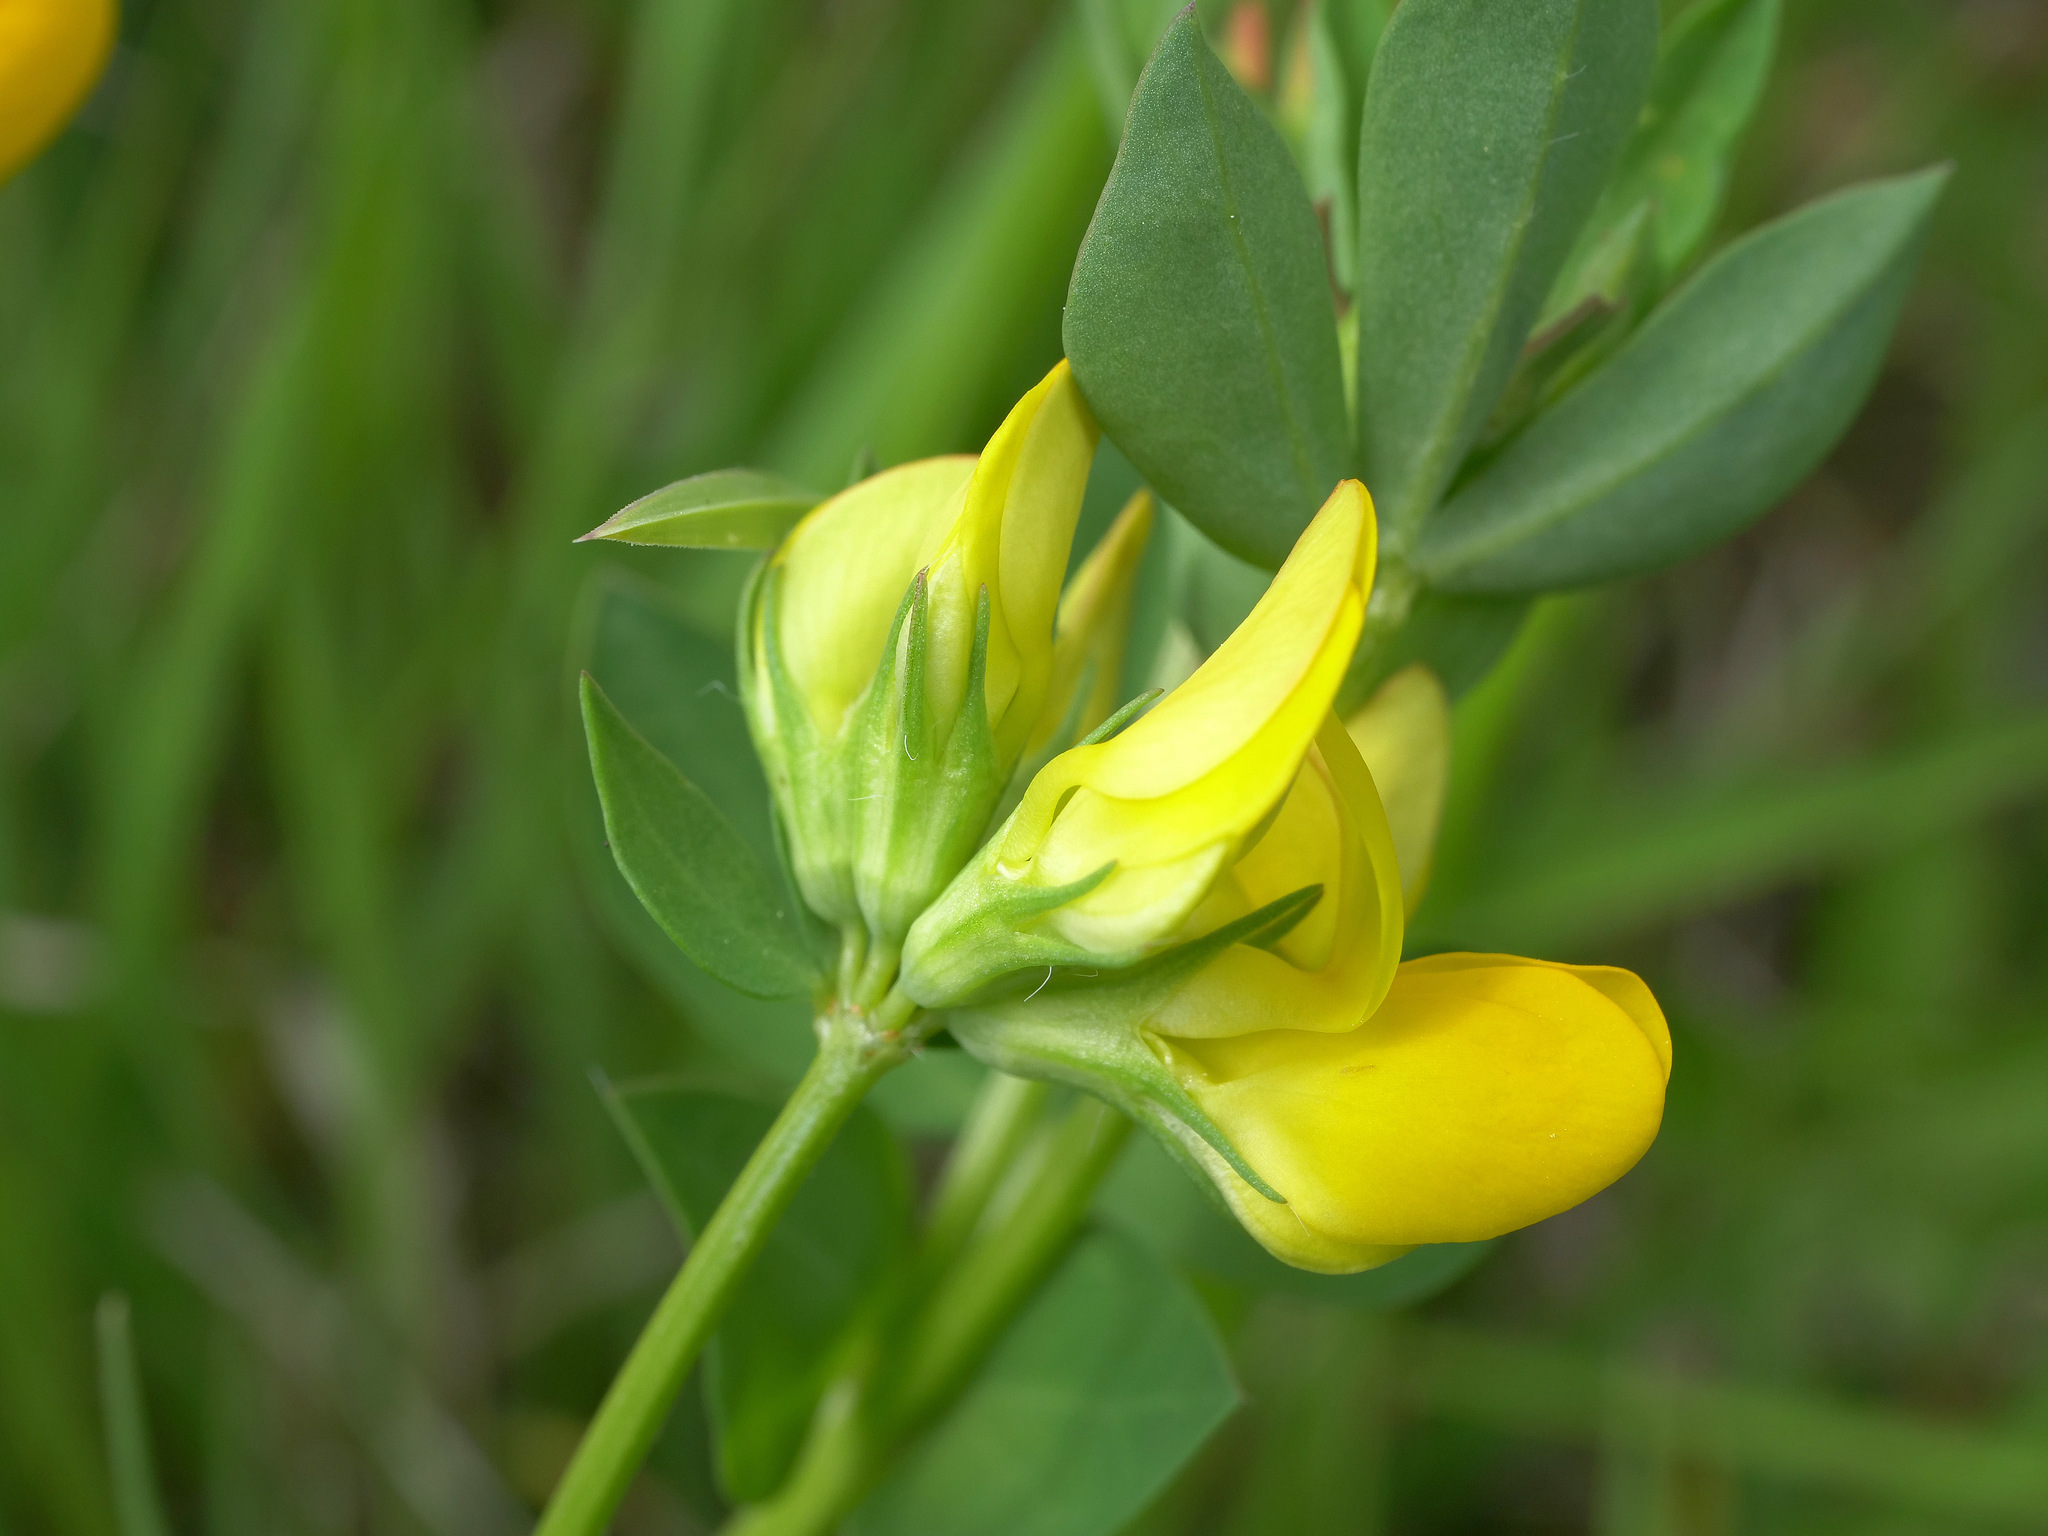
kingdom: Plantae
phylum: Tracheophyta
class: Magnoliopsida
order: Fabales
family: Fabaceae
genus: Lotus
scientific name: Lotus corniculatus
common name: Common bird's-foot-trefoil
